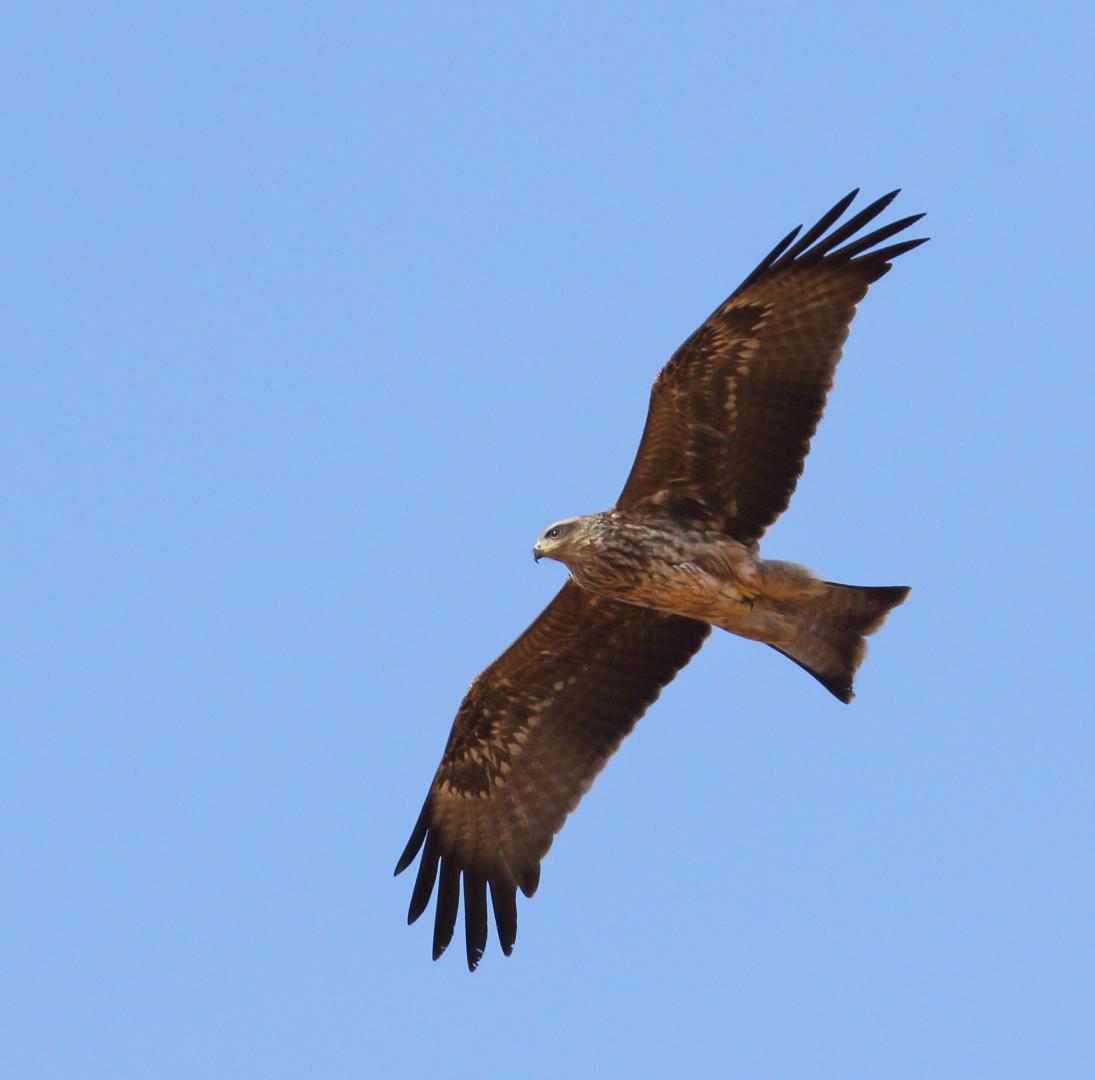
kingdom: Animalia
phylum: Chordata
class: Aves
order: Accipitriformes
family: Accipitridae
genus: Milvus
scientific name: Milvus migrans
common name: Black kite
